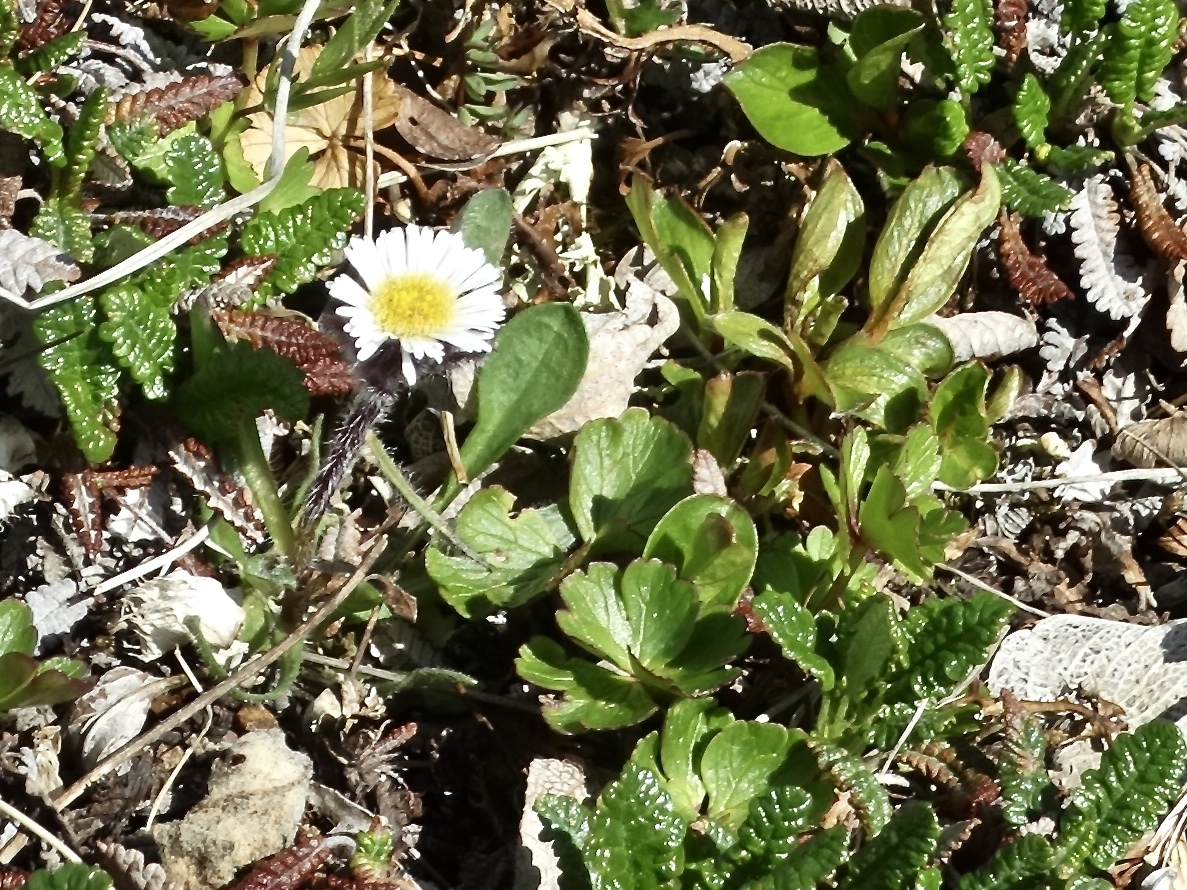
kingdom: Plantae
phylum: Tracheophyta
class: Magnoliopsida
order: Asterales
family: Asteraceae
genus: Erigeron
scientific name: Erigeron humilis
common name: Arctic-alpine fleabane
